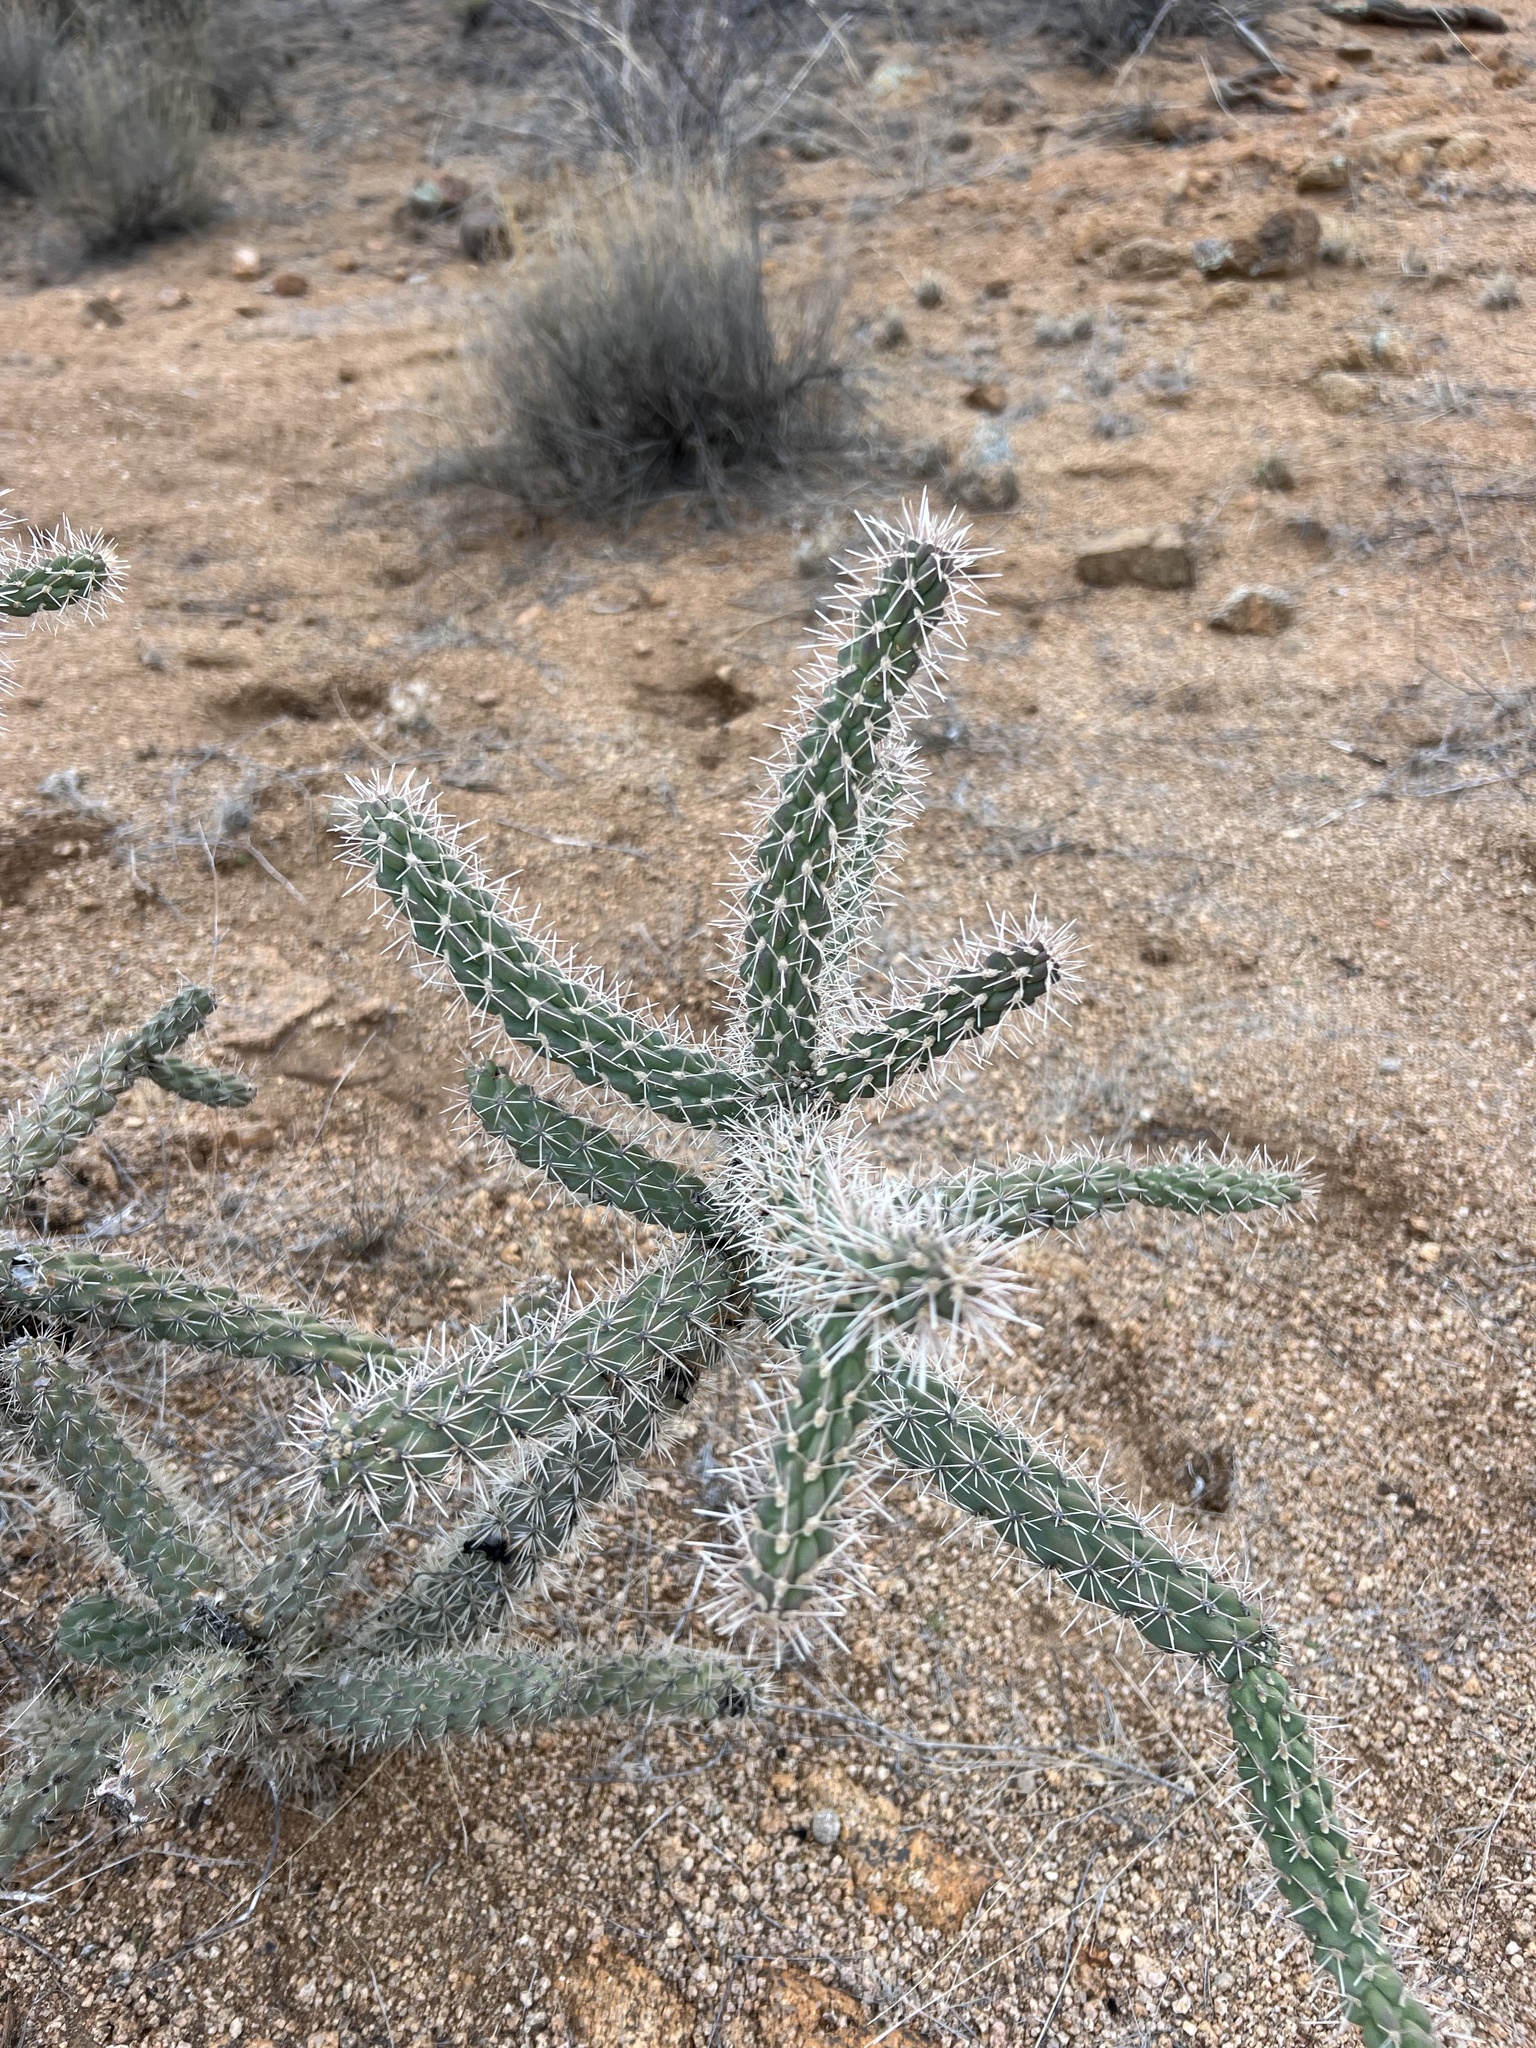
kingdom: Plantae
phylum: Tracheophyta
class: Magnoliopsida
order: Caryophyllales
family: Cactaceae
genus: Cylindropuntia
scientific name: Cylindropuntia imbricata
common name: Candelabrum cactus
